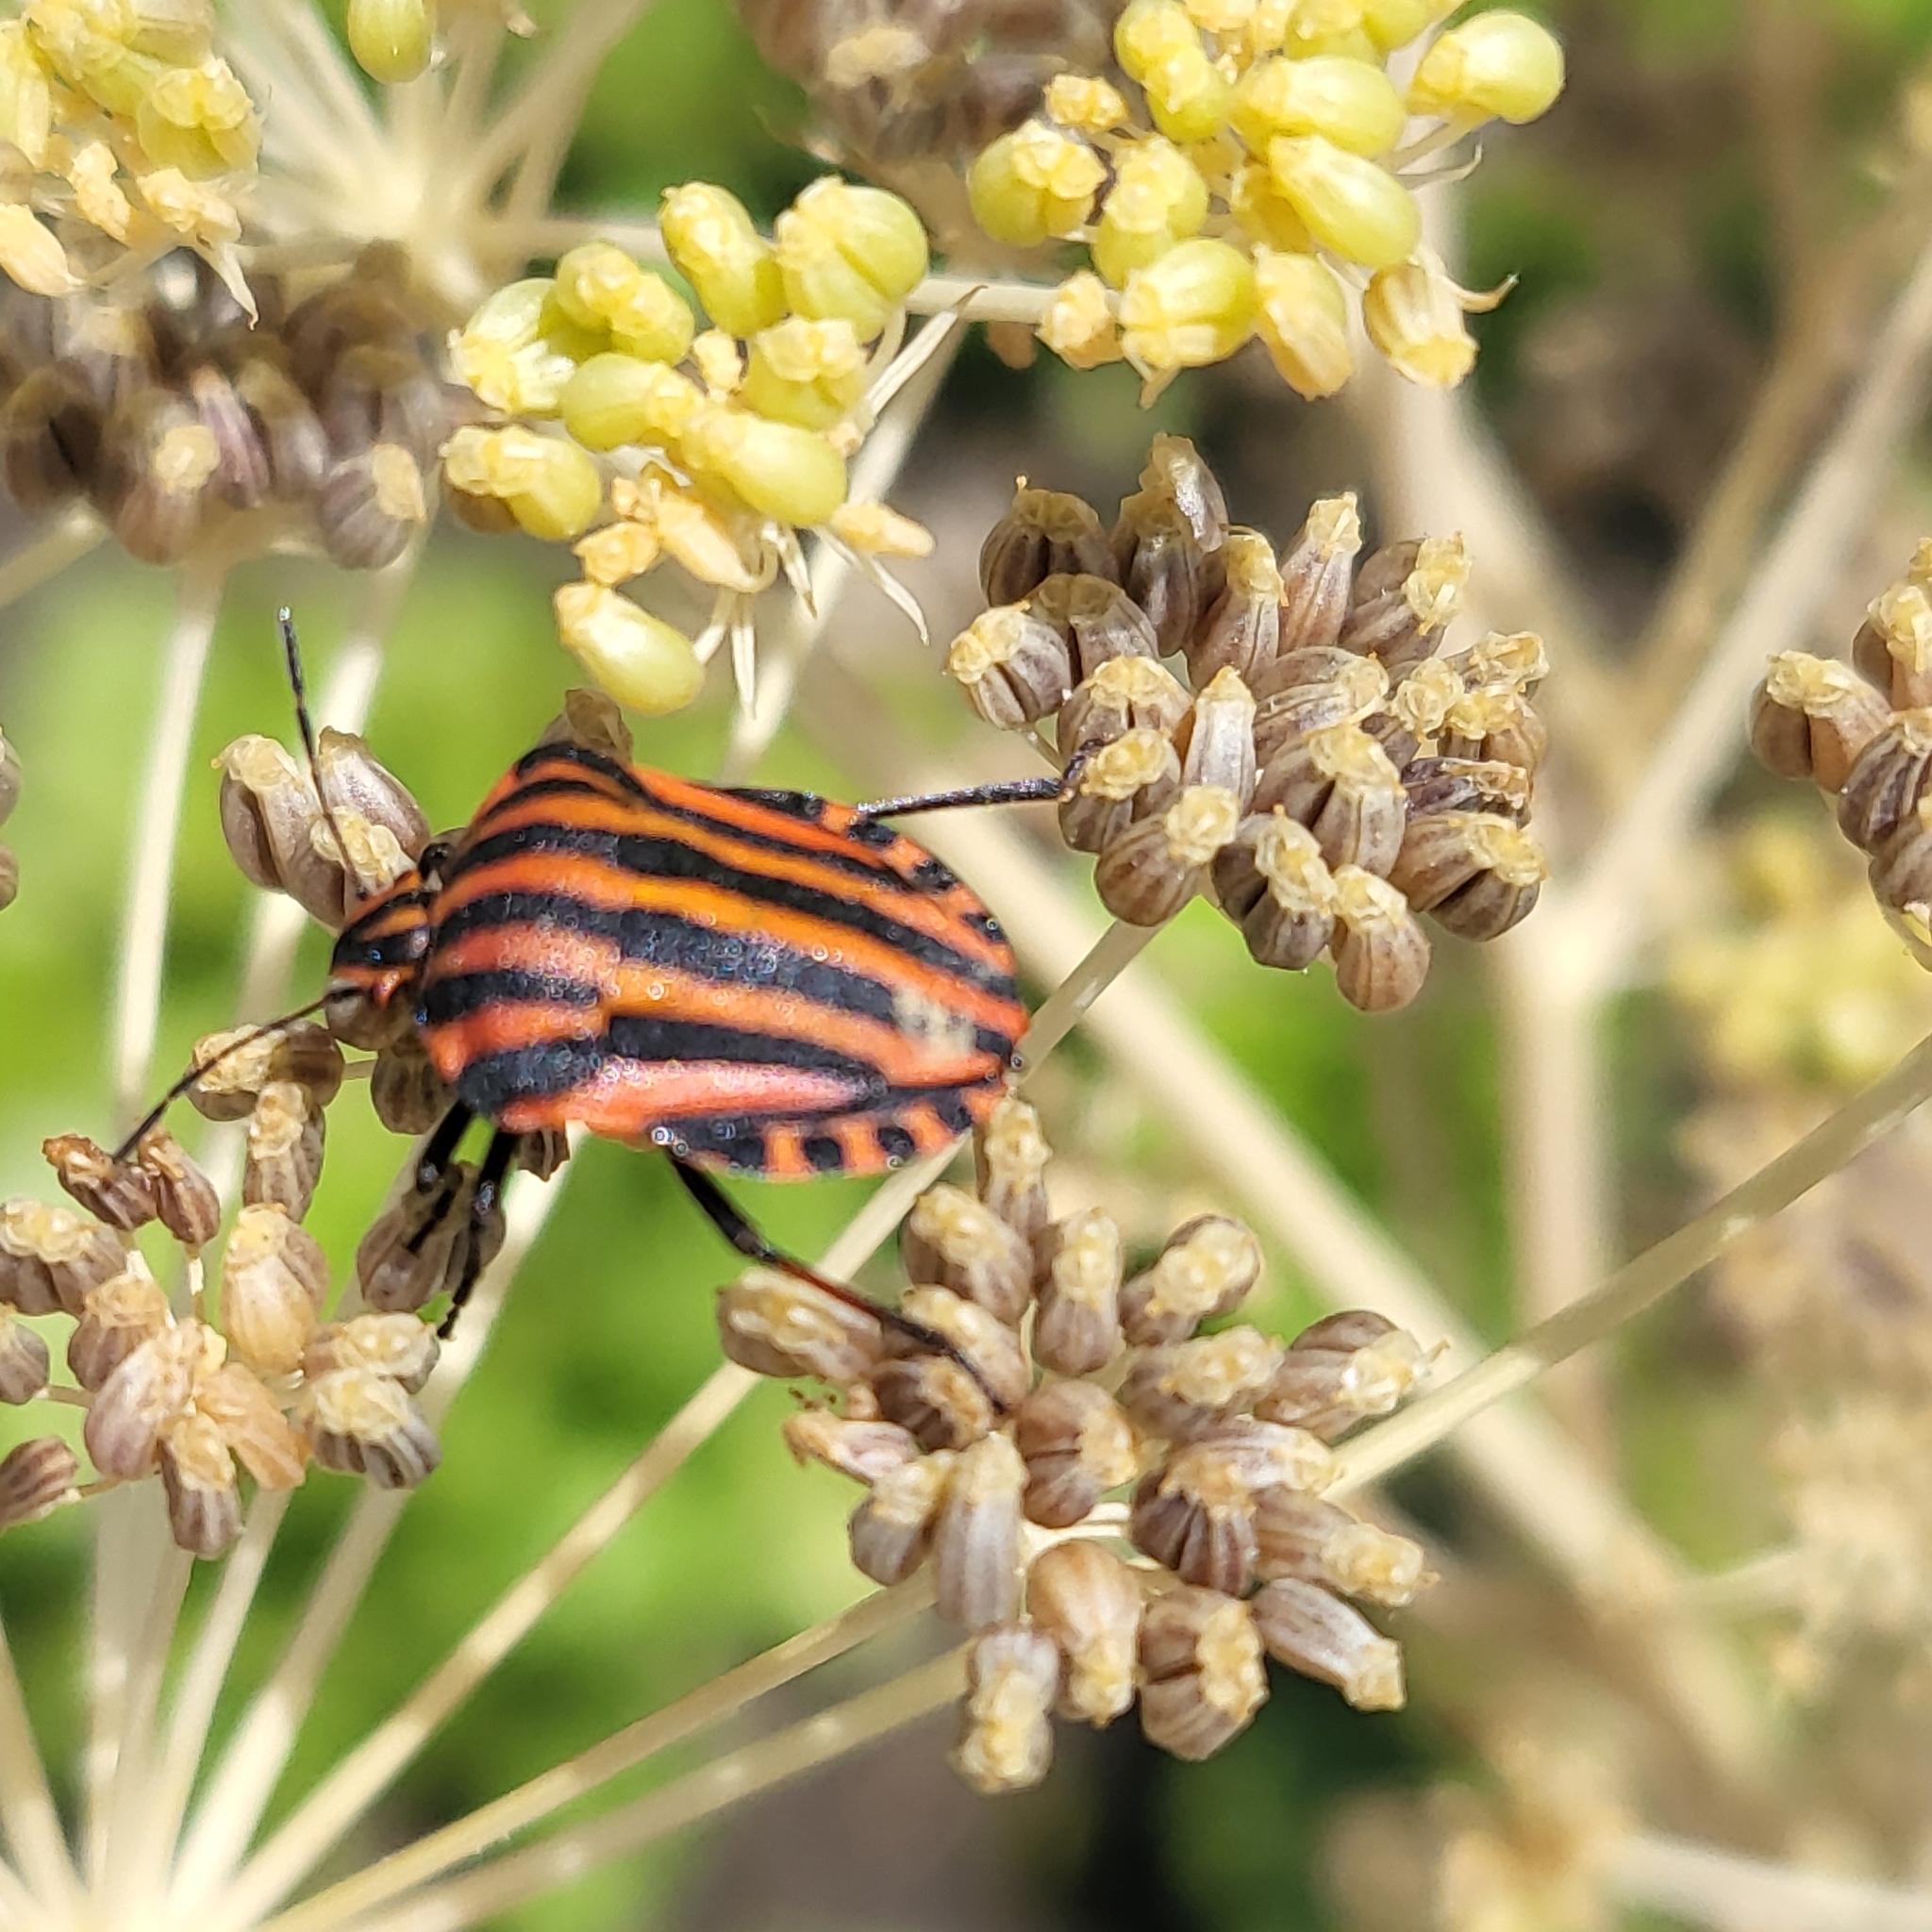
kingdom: Animalia
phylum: Arthropoda
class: Insecta
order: Hemiptera
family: Pentatomidae
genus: Graphosoma
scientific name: Graphosoma italicum
